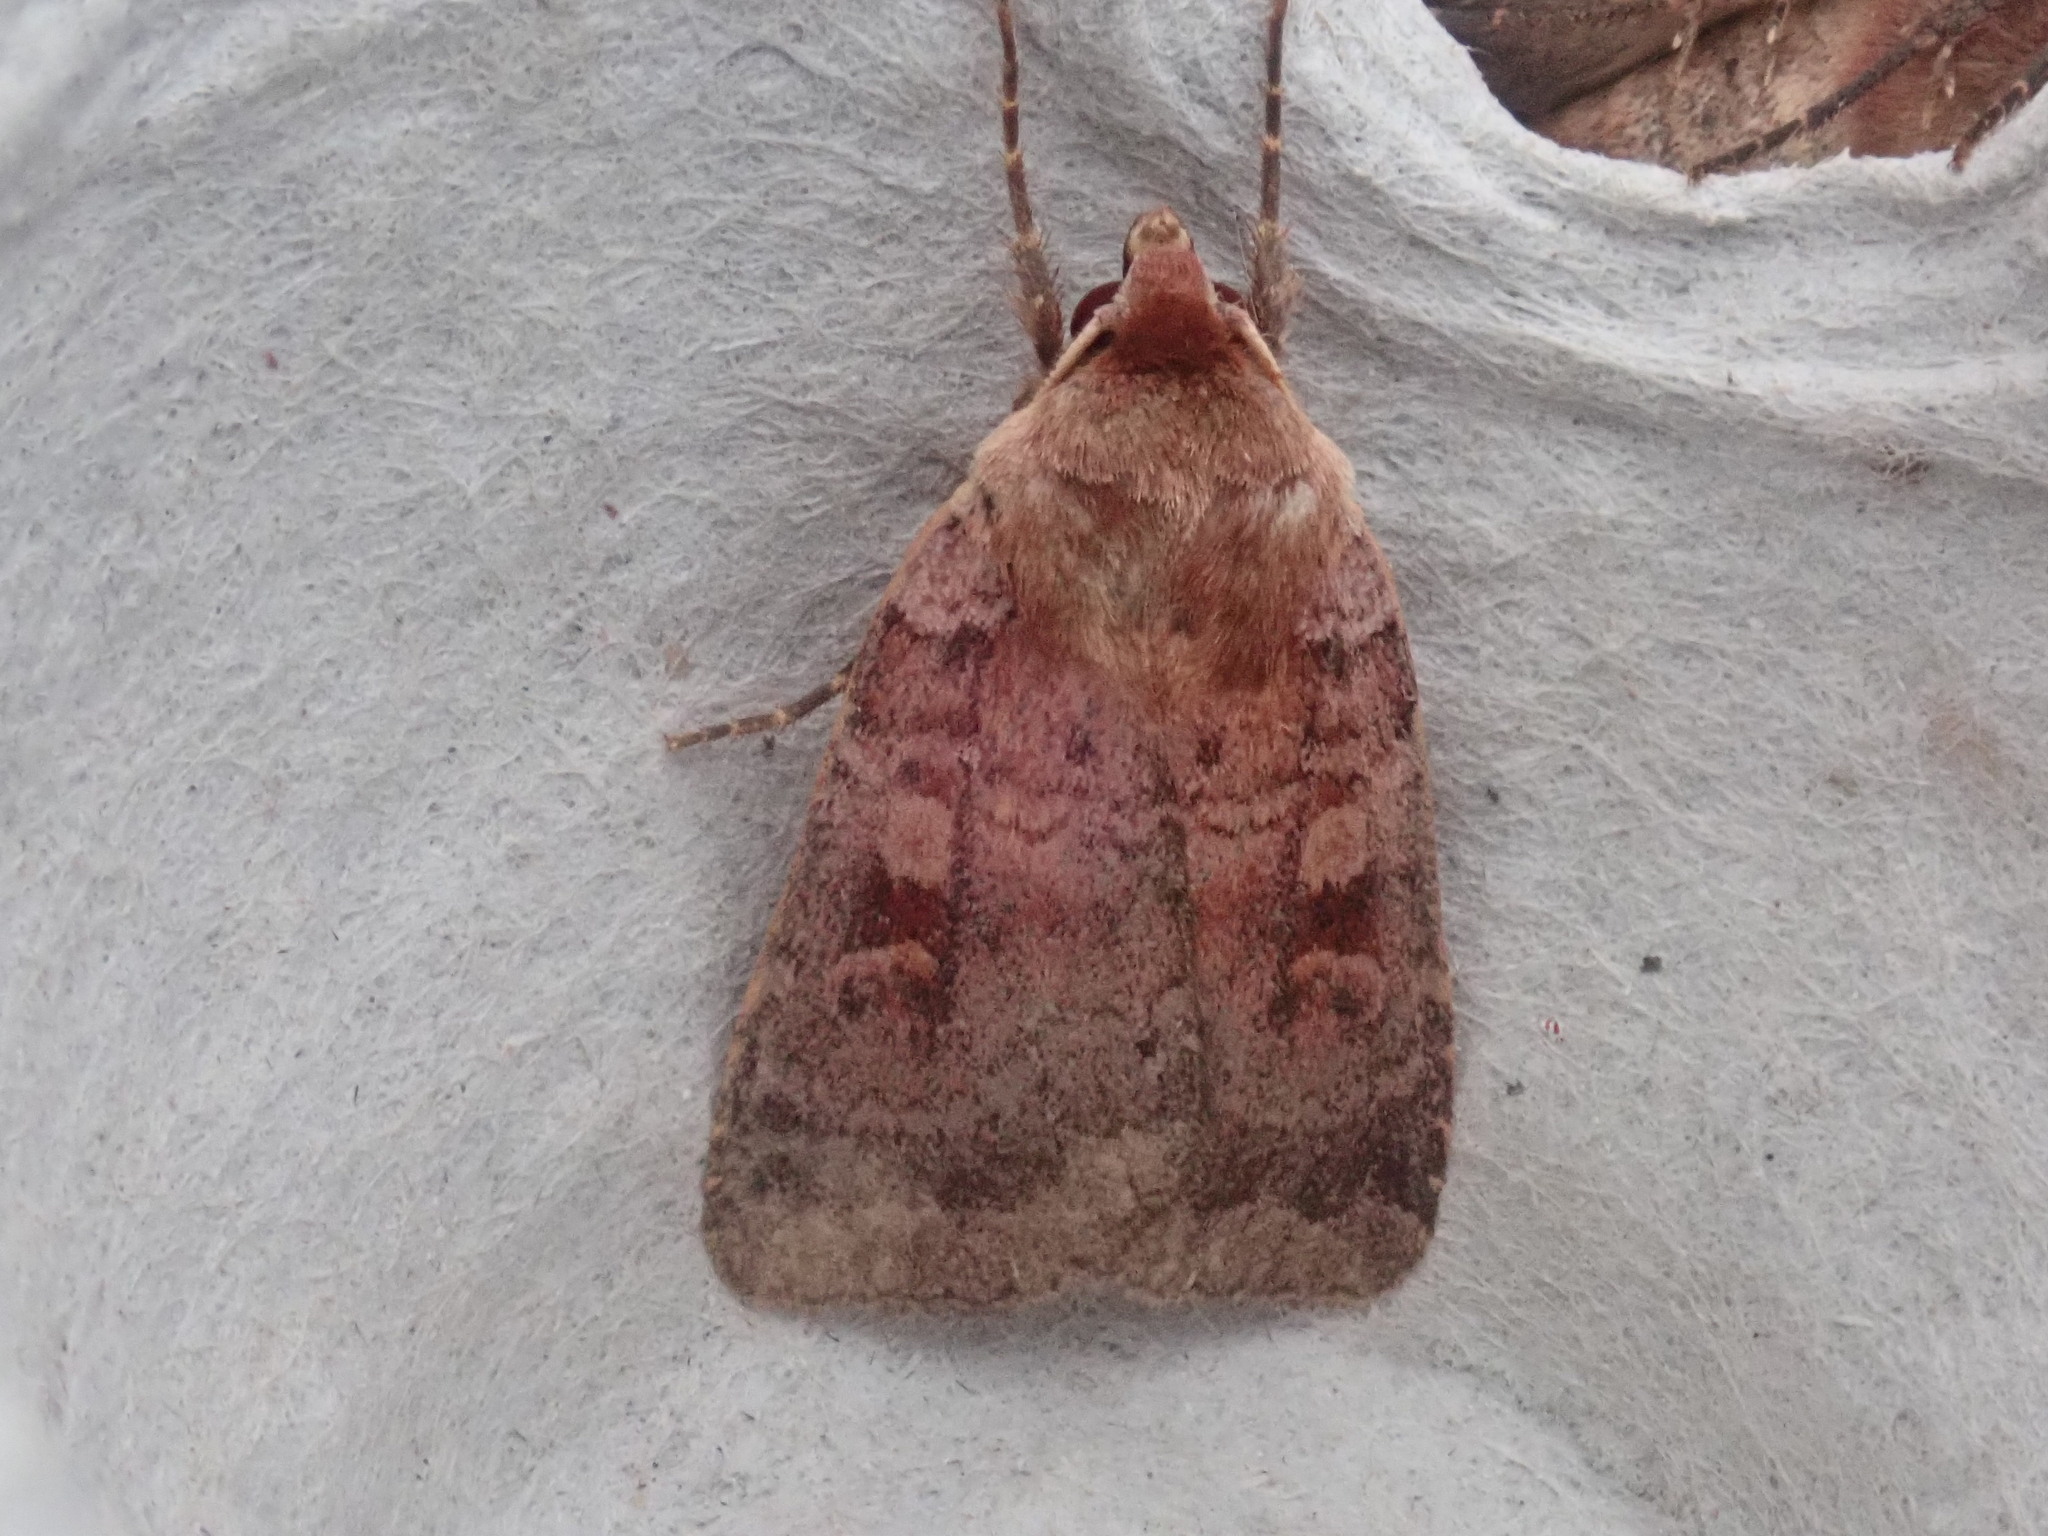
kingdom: Animalia
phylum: Arthropoda
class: Insecta
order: Lepidoptera
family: Noctuidae
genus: Lycophotia
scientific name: Lycophotia phyllophora
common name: Lycophotia moth
